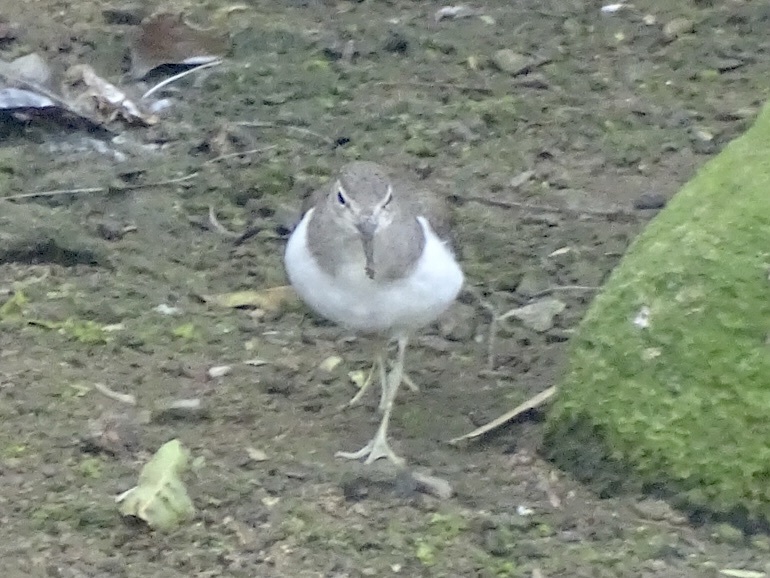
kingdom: Animalia
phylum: Chordata
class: Aves
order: Charadriiformes
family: Scolopacidae
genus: Actitis
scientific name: Actitis hypoleucos
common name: Common sandpiper
